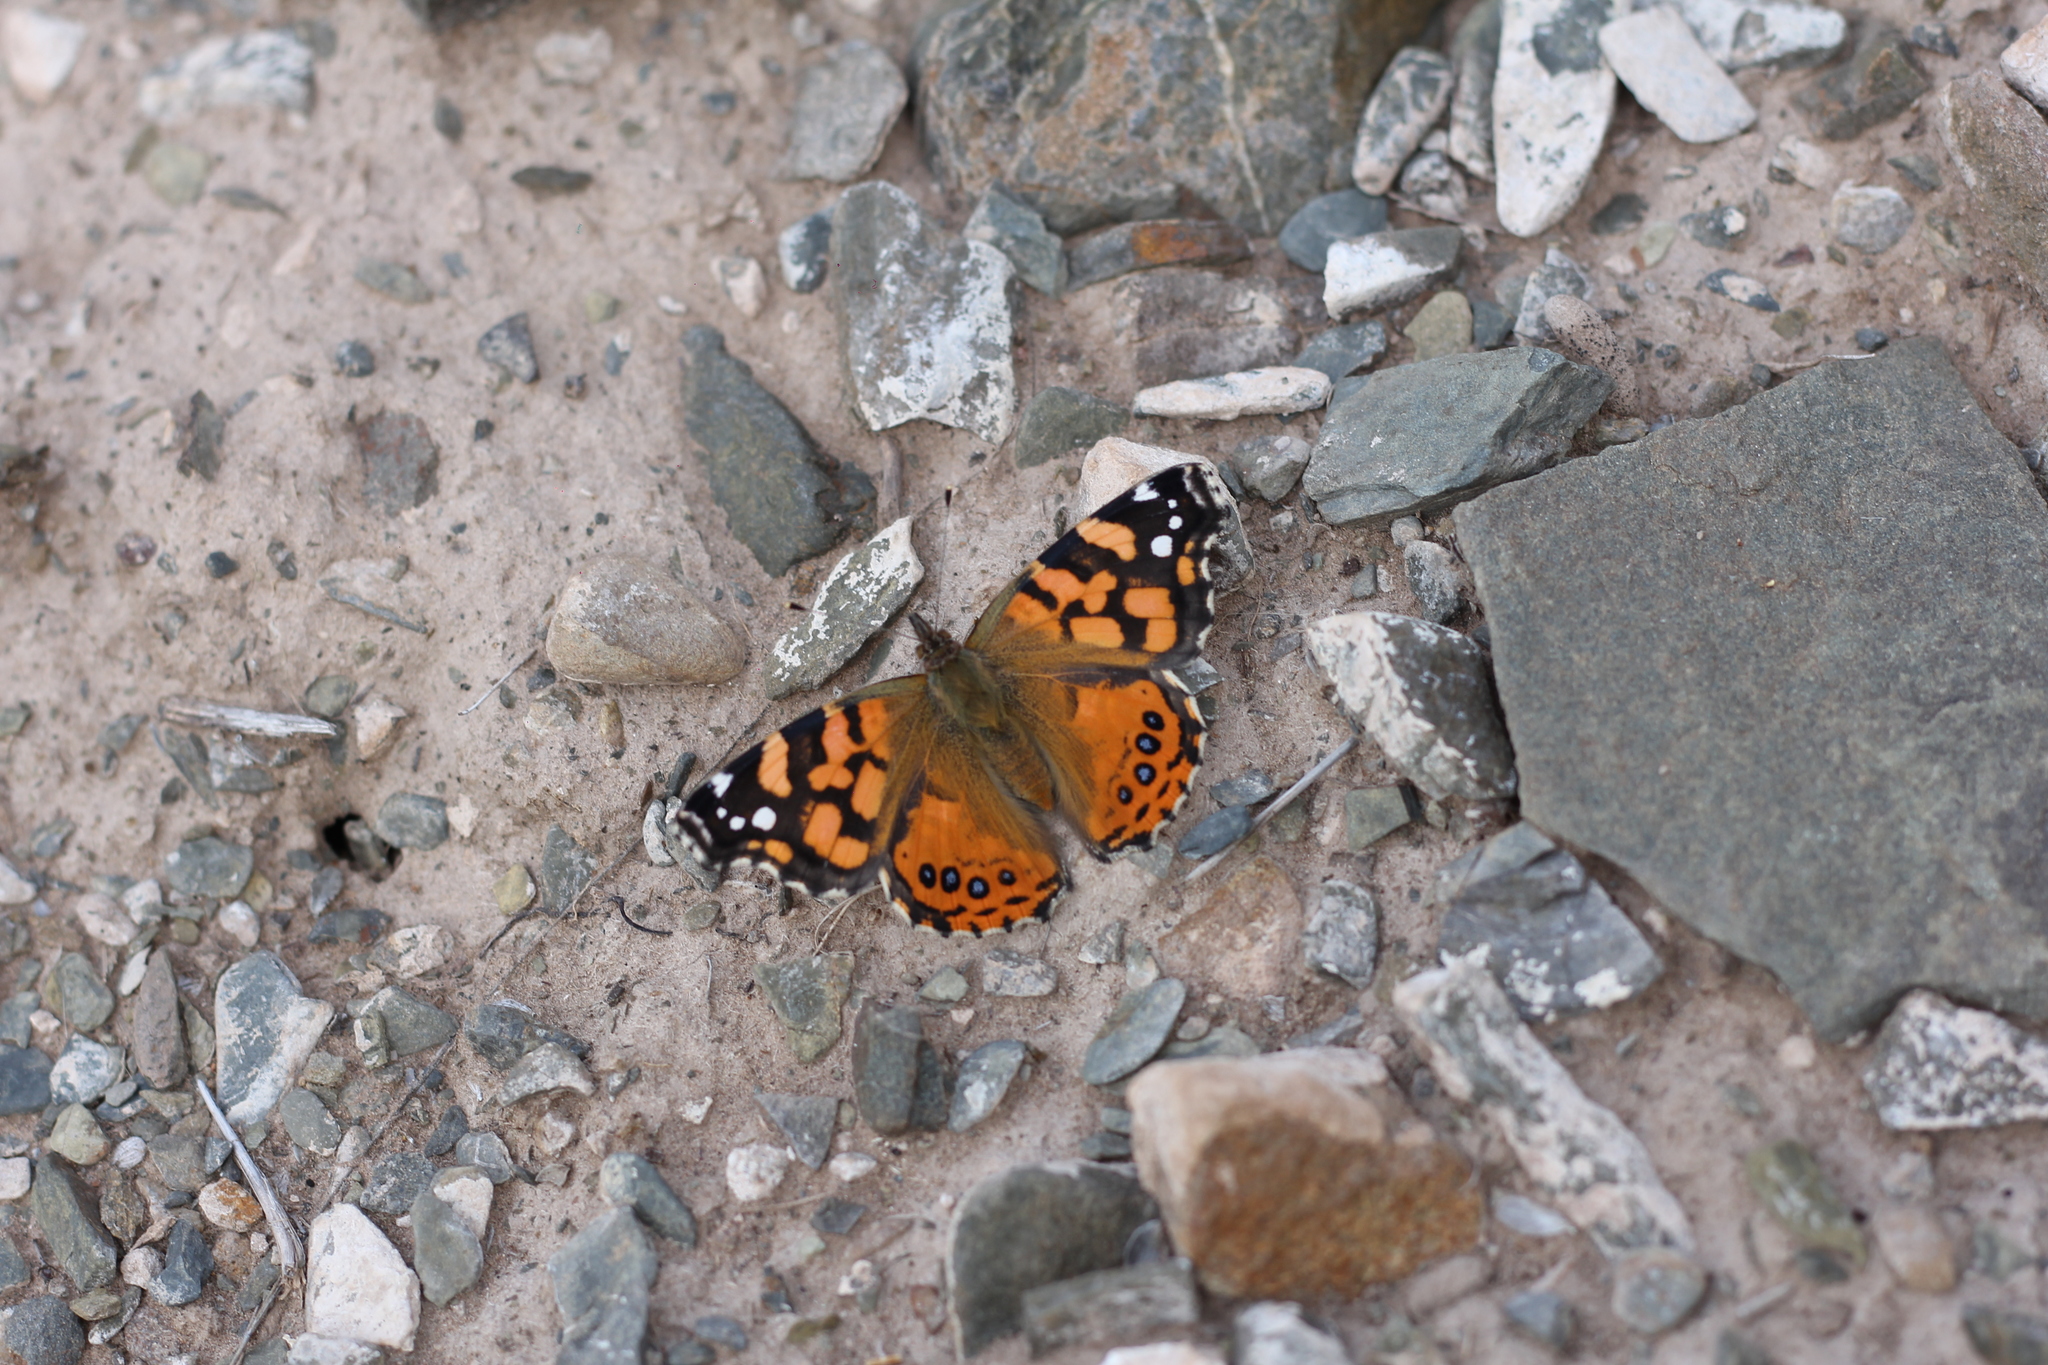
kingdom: Animalia
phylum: Arthropoda
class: Insecta
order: Lepidoptera
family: Nymphalidae
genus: Vanessa
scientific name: Vanessa carye
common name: Subtropical lady
